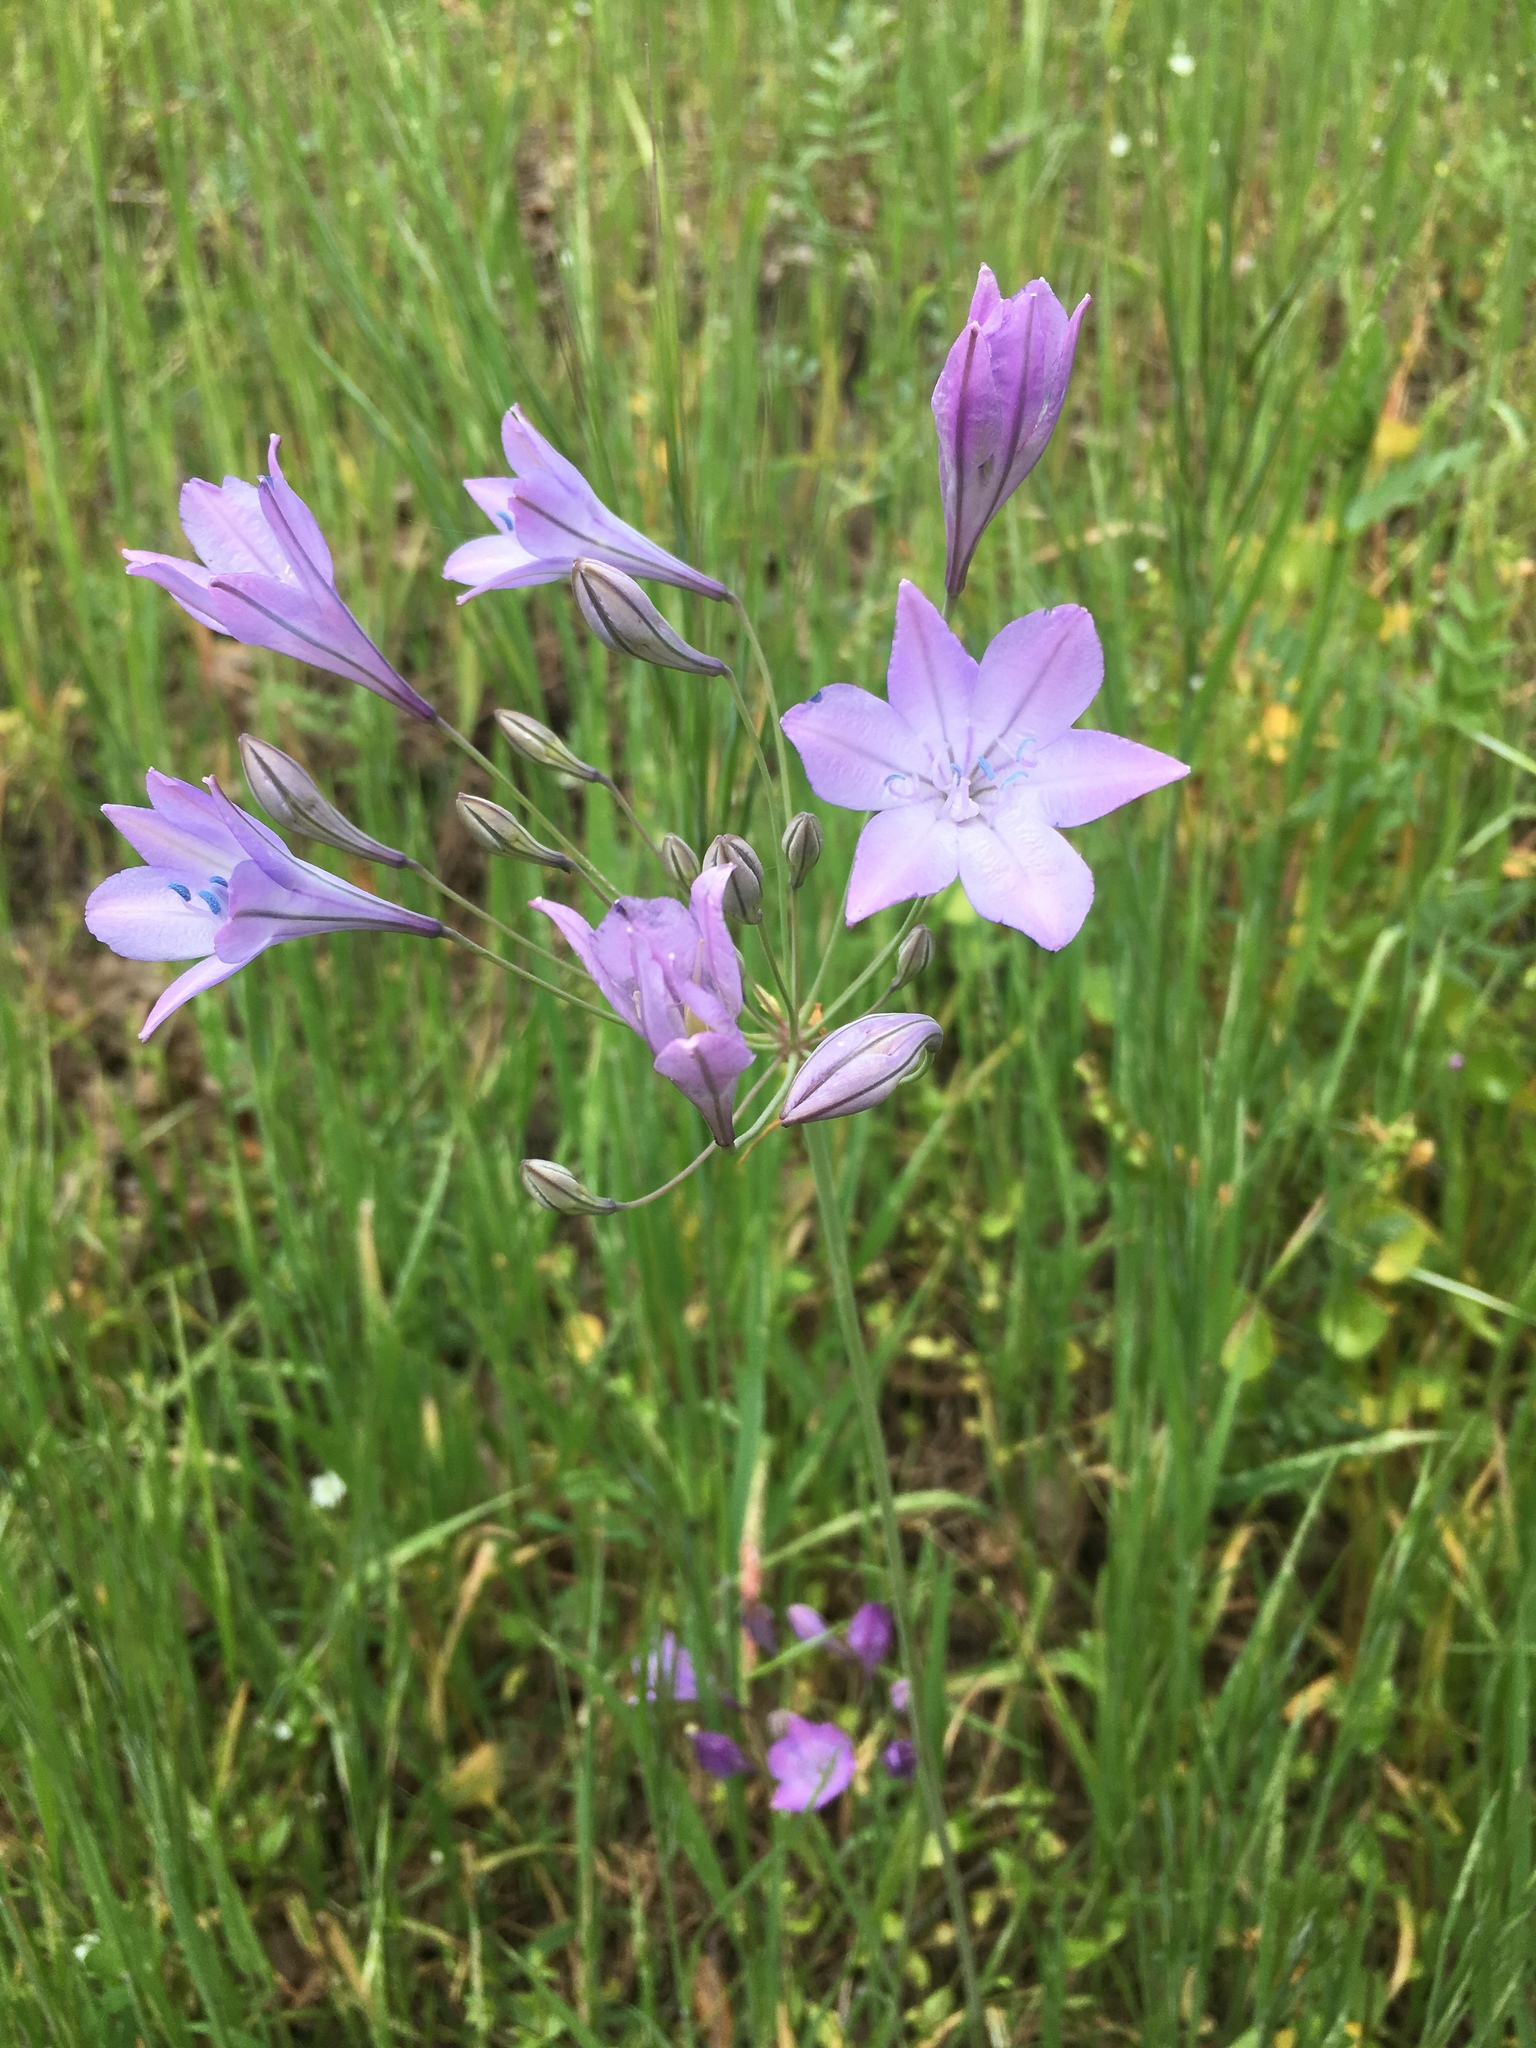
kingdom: Plantae
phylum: Tracheophyta
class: Liliopsida
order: Asparagales
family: Asparagaceae
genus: Triteleia
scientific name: Triteleia laxa
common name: Triplet-lily
